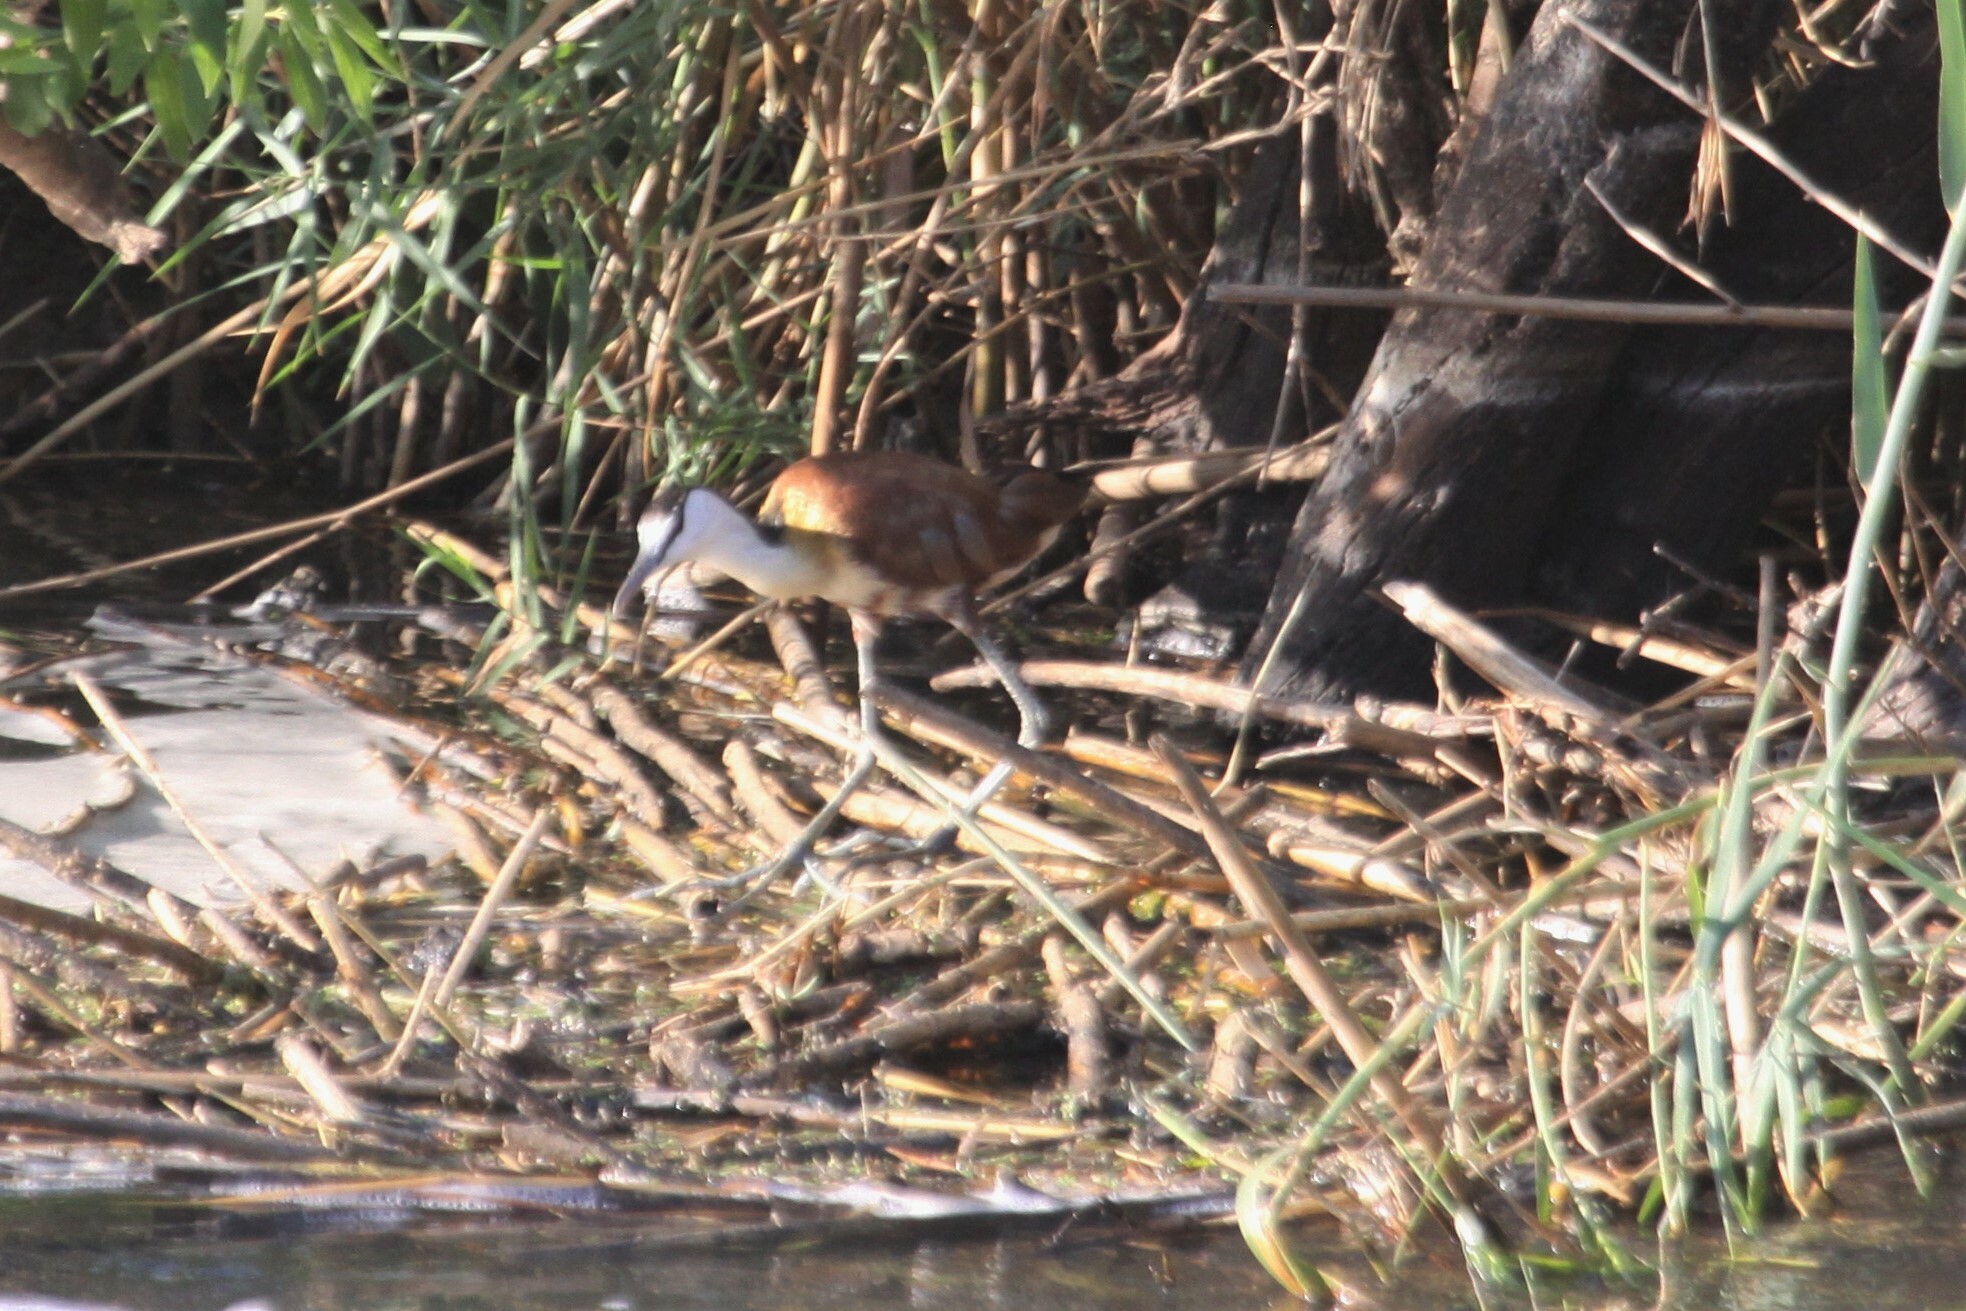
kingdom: Animalia
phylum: Chordata
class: Aves
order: Charadriiformes
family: Jacanidae
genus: Actophilornis
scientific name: Actophilornis africanus
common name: African jacana
